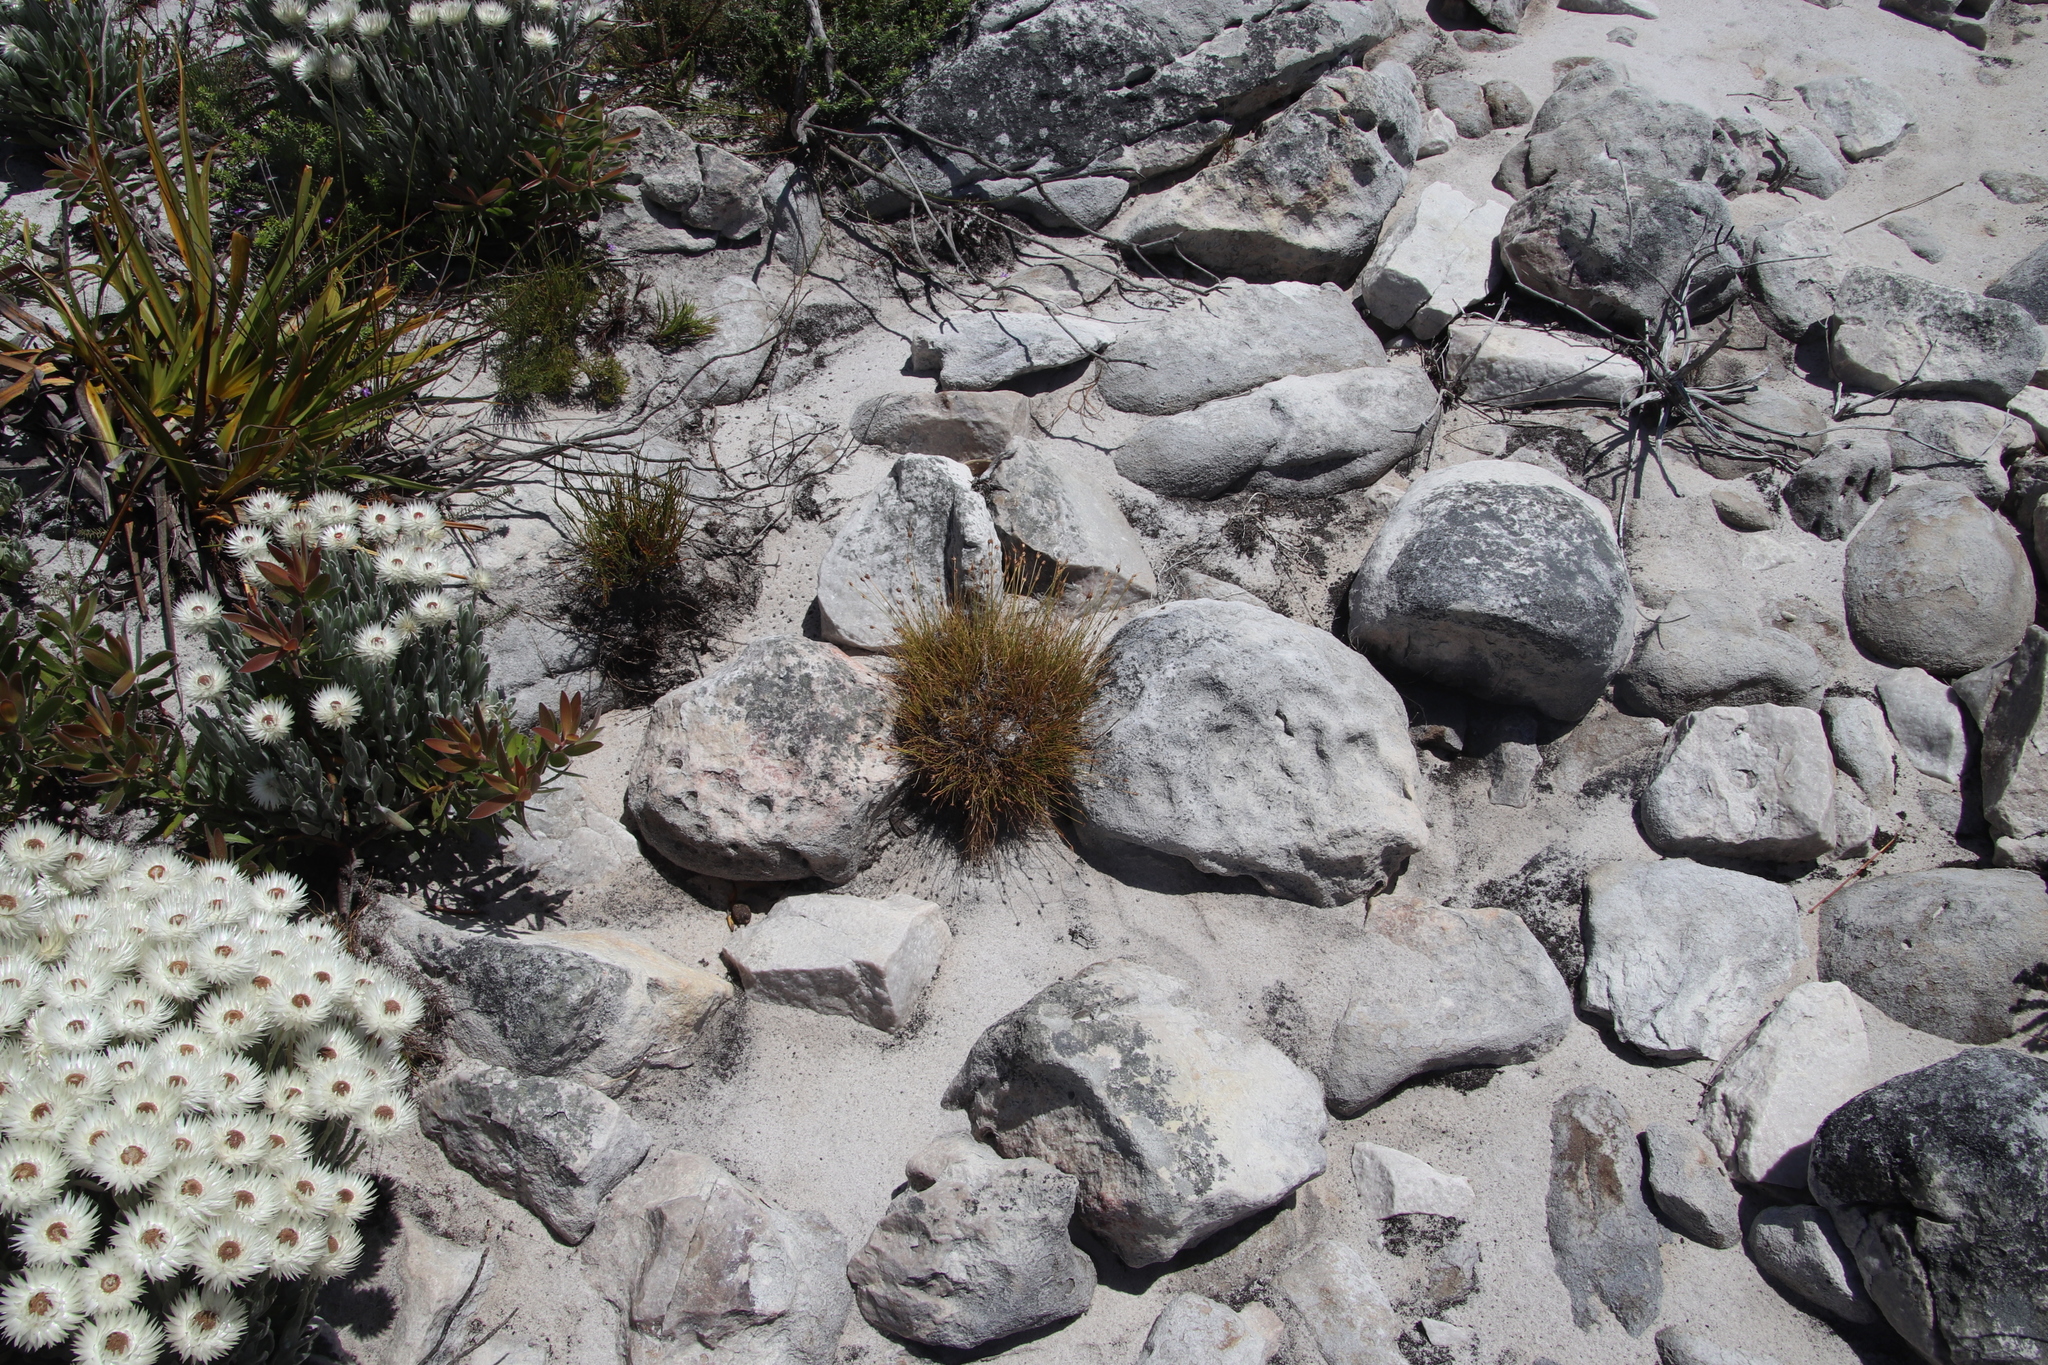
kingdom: Plantae
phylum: Tracheophyta
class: Liliopsida
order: Poales
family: Cyperaceae
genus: Ficinia
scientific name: Ficinia capitella
